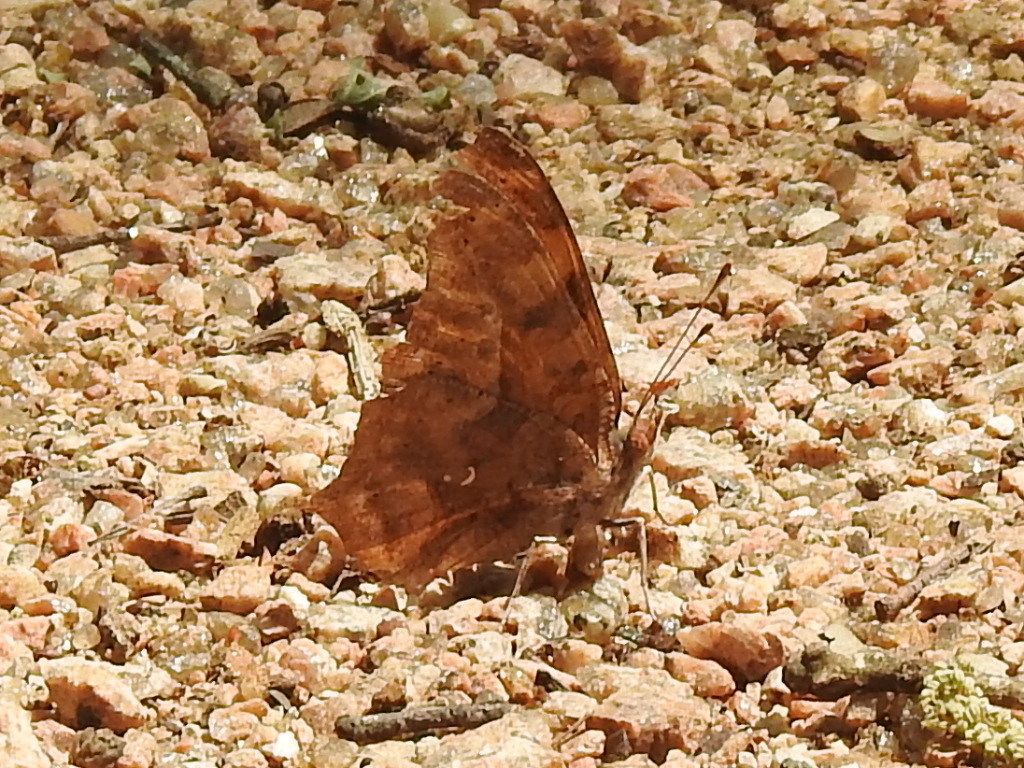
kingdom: Animalia
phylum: Arthropoda
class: Insecta
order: Lepidoptera
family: Nymphalidae
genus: Polygonia
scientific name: Polygonia interrogationis
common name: Question mark
